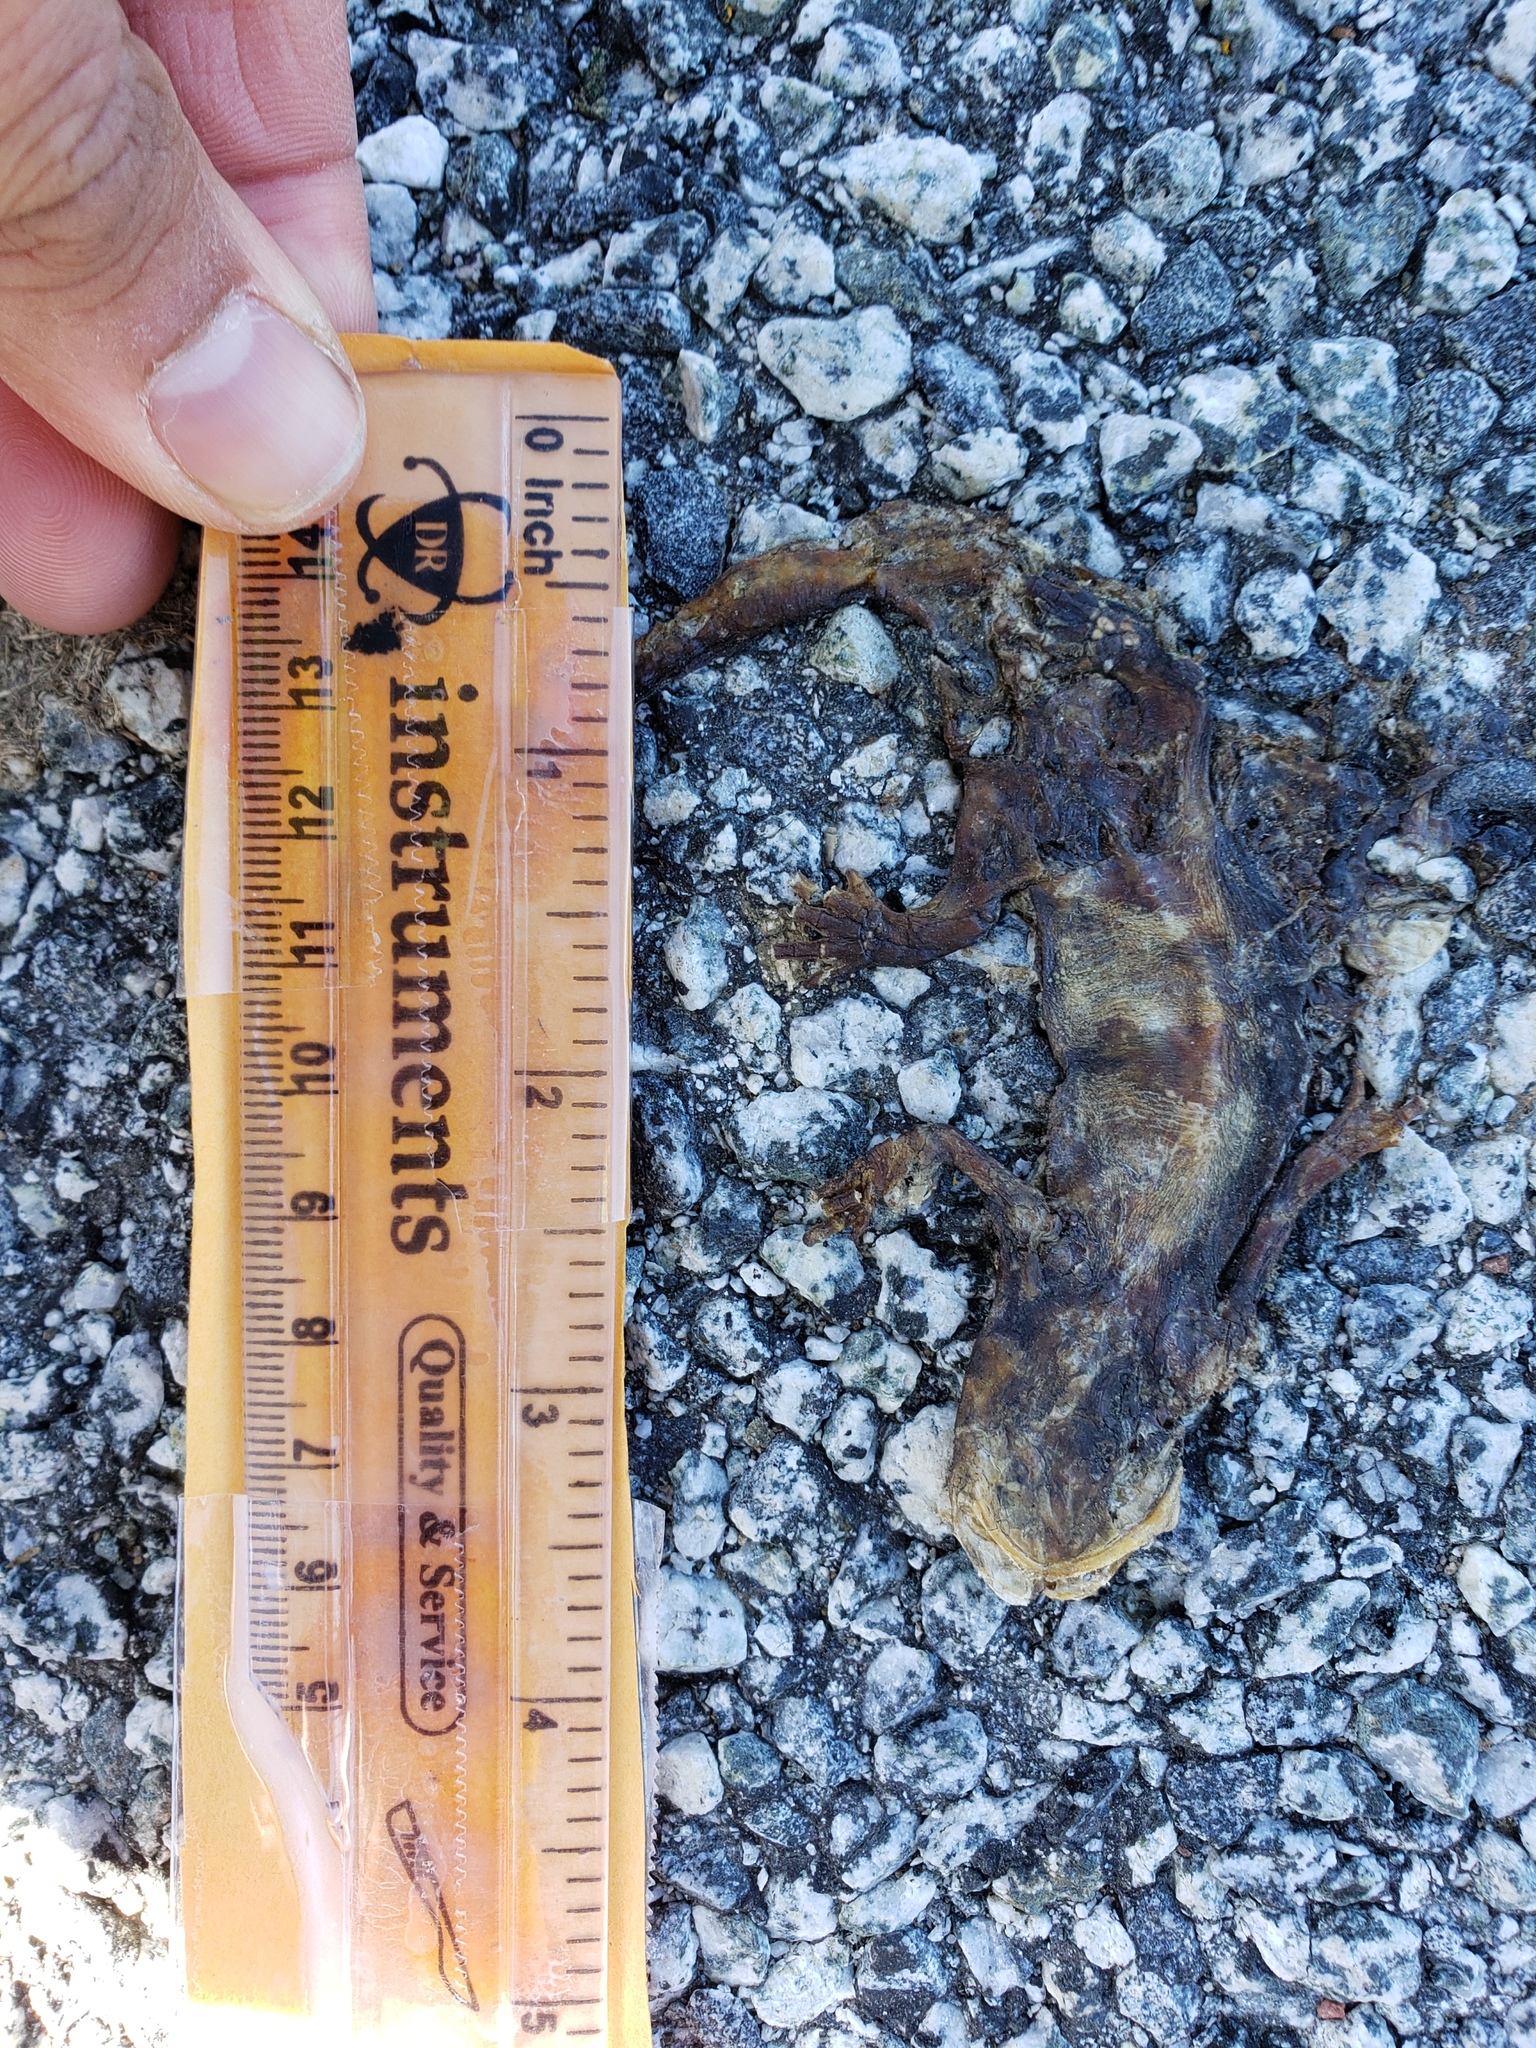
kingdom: Animalia
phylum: Chordata
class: Amphibia
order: Caudata
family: Salamandridae
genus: Taricha
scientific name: Taricha
